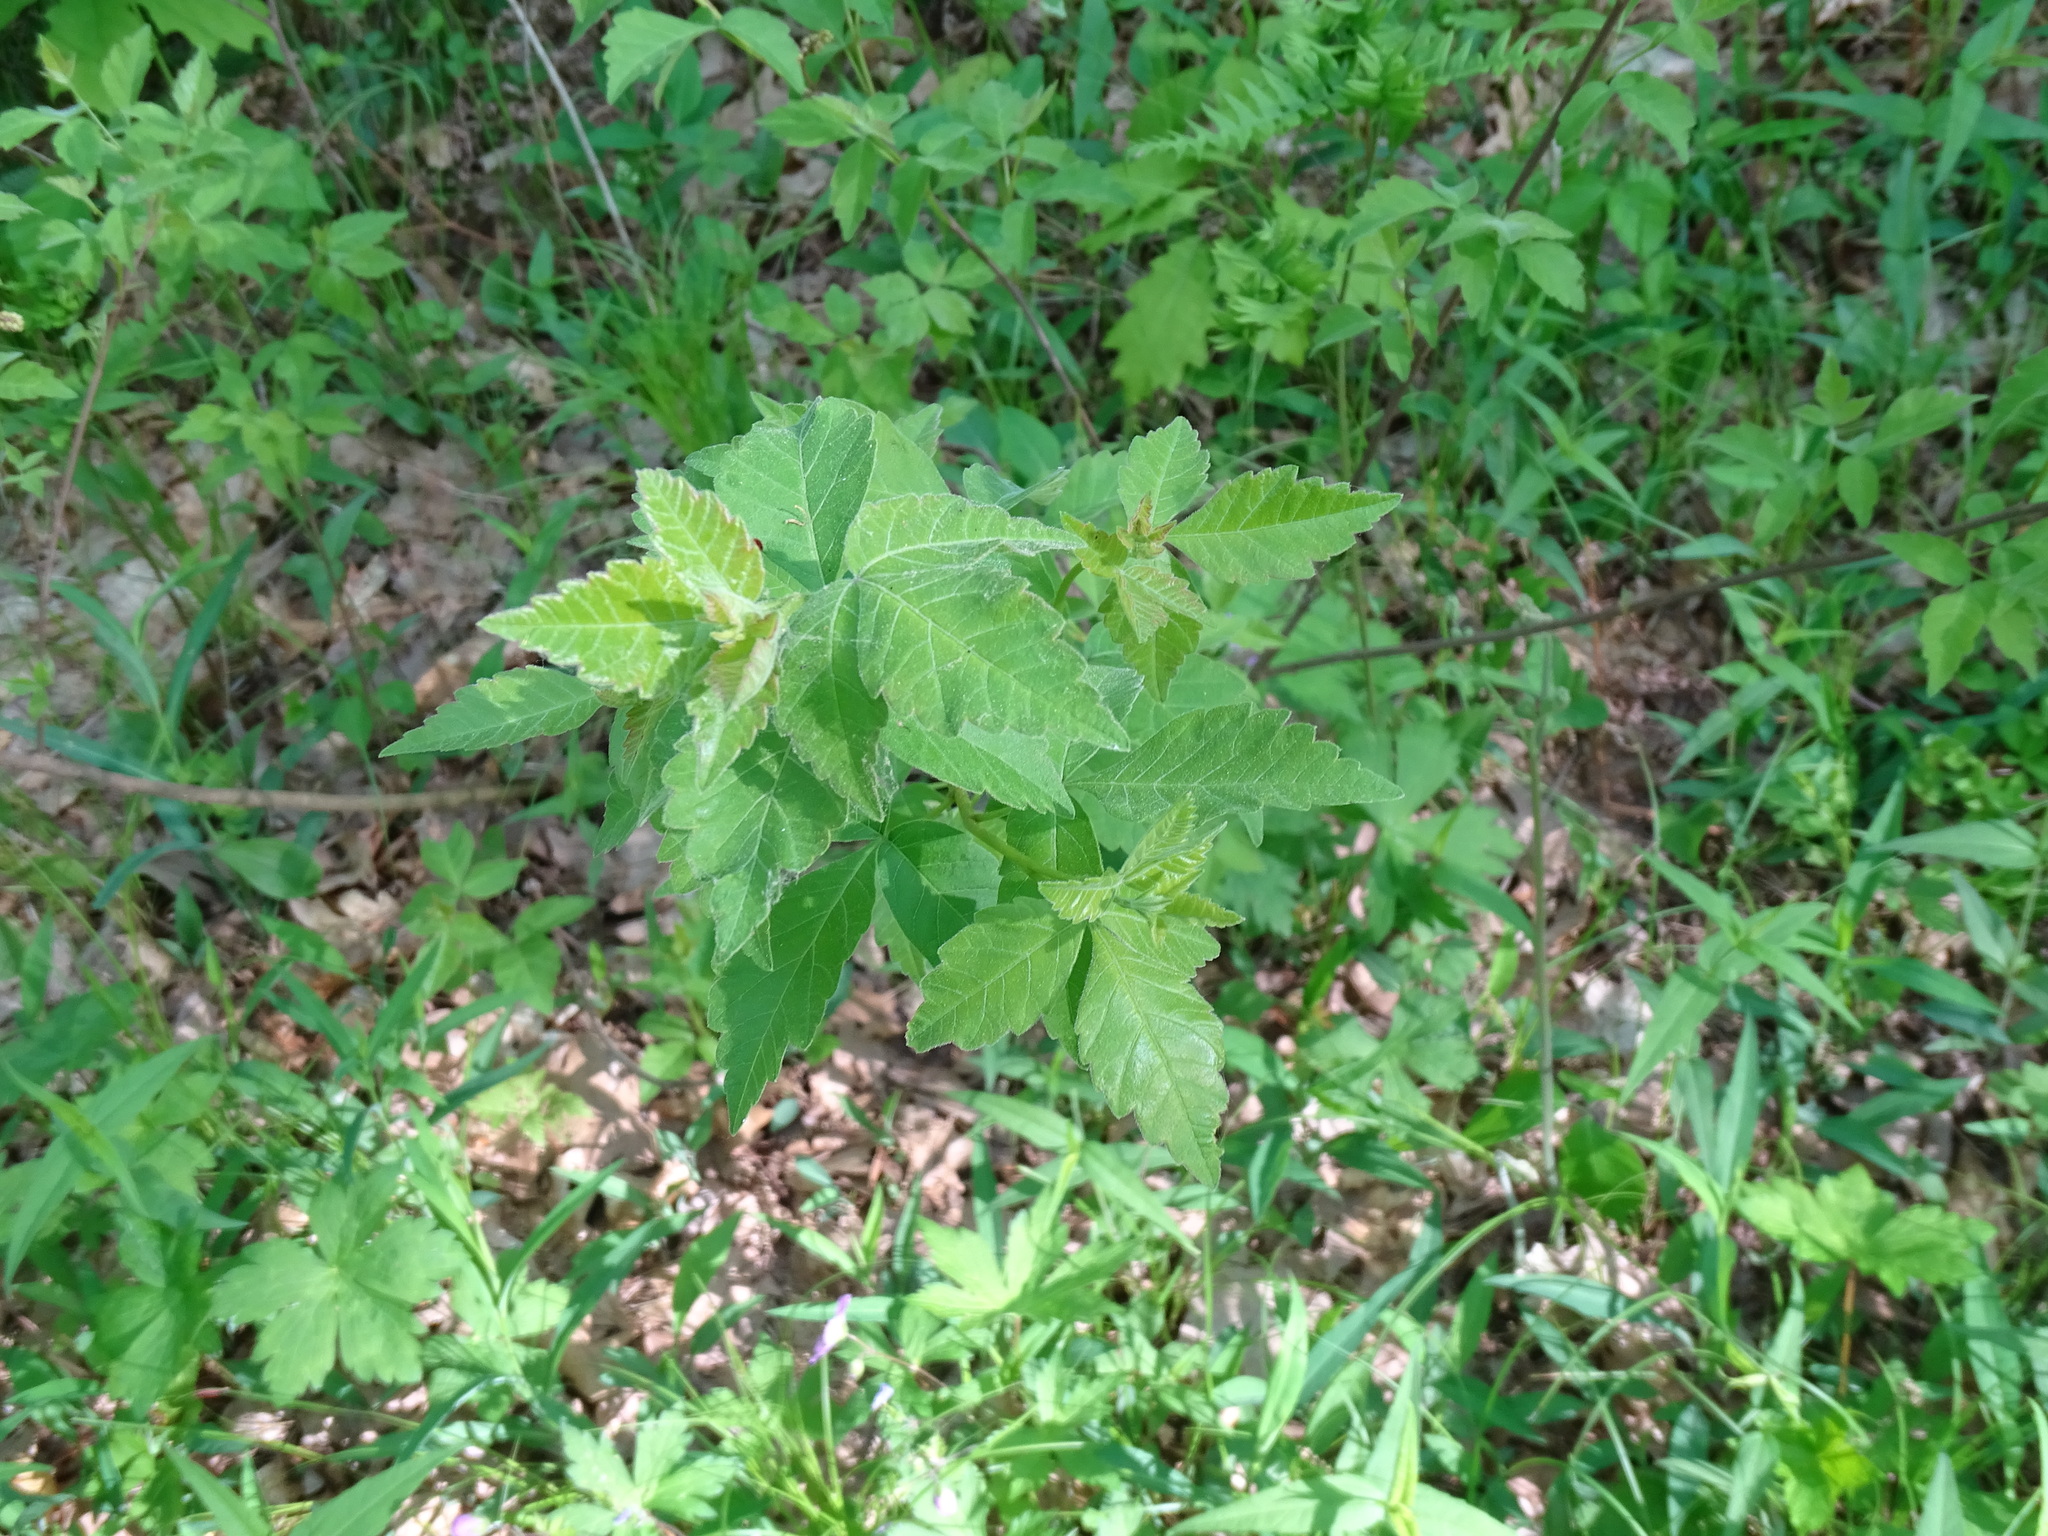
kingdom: Plantae
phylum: Tracheophyta
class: Magnoliopsida
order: Sapindales
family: Anacardiaceae
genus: Rhus
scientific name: Rhus aromatica
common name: Aromatic sumac
